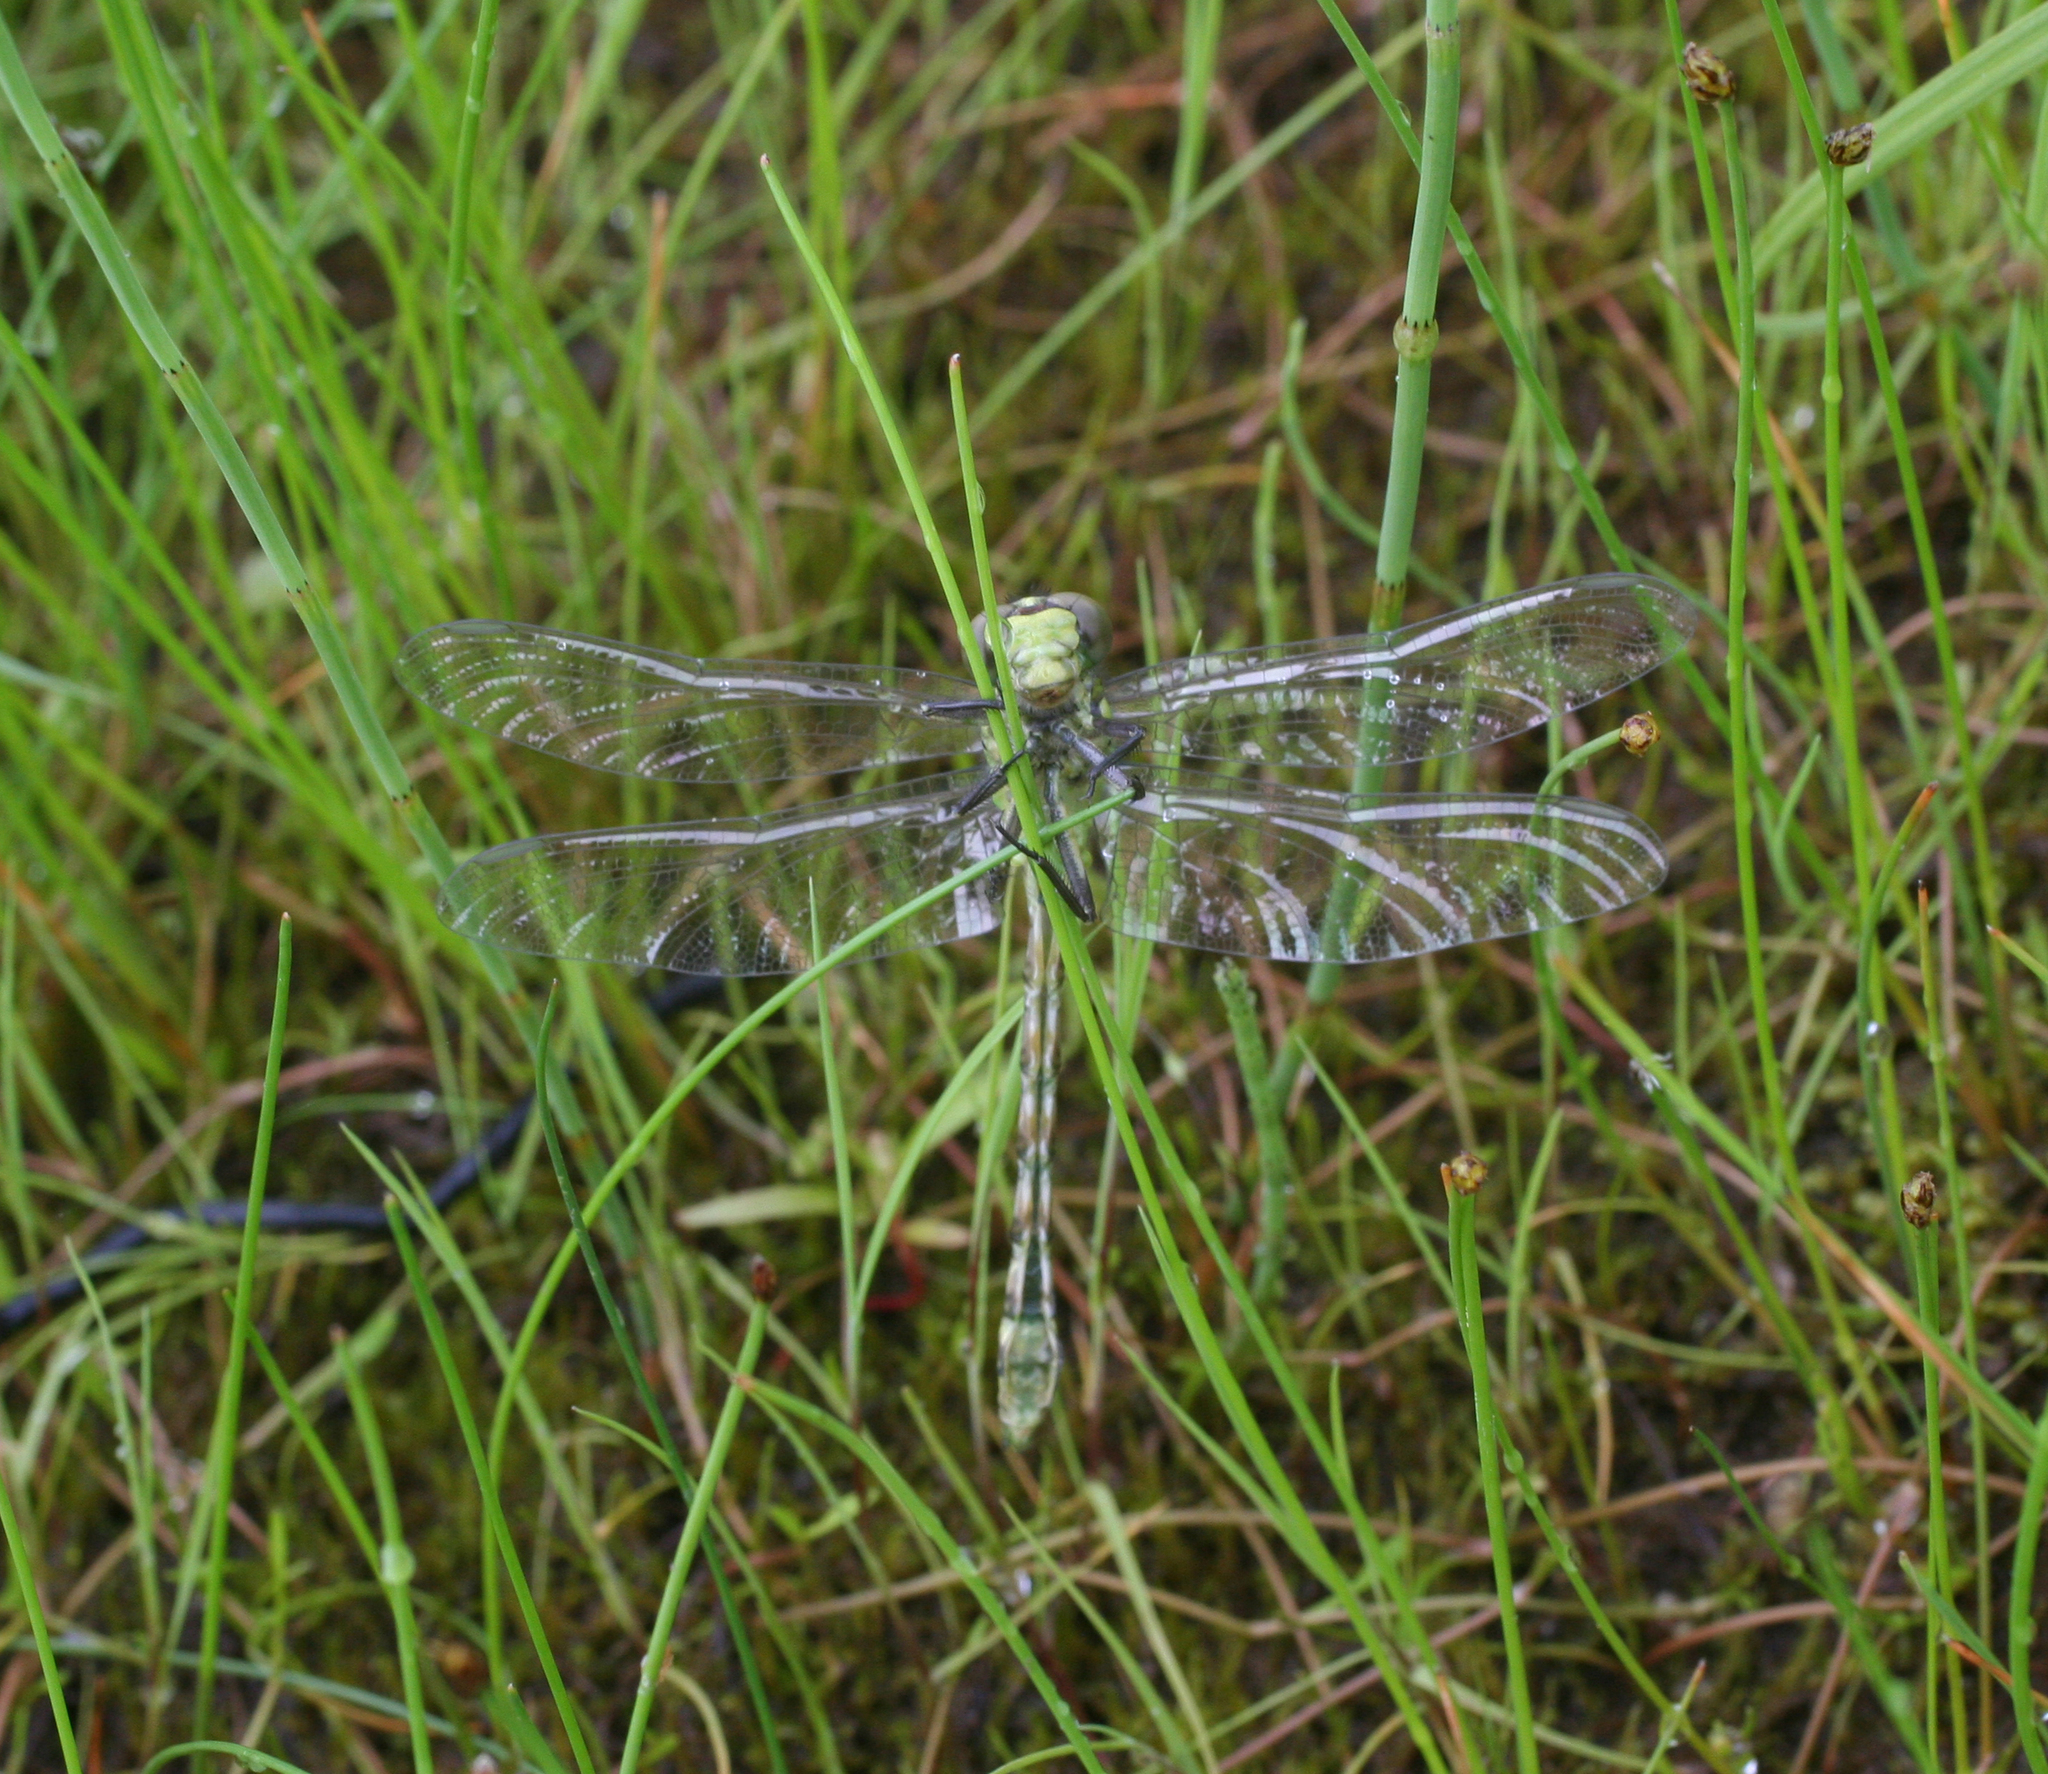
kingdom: Animalia
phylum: Arthropoda
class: Insecta
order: Odonata
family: Gomphidae
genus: Ophiogomphus
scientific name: Ophiogomphus obscurus
